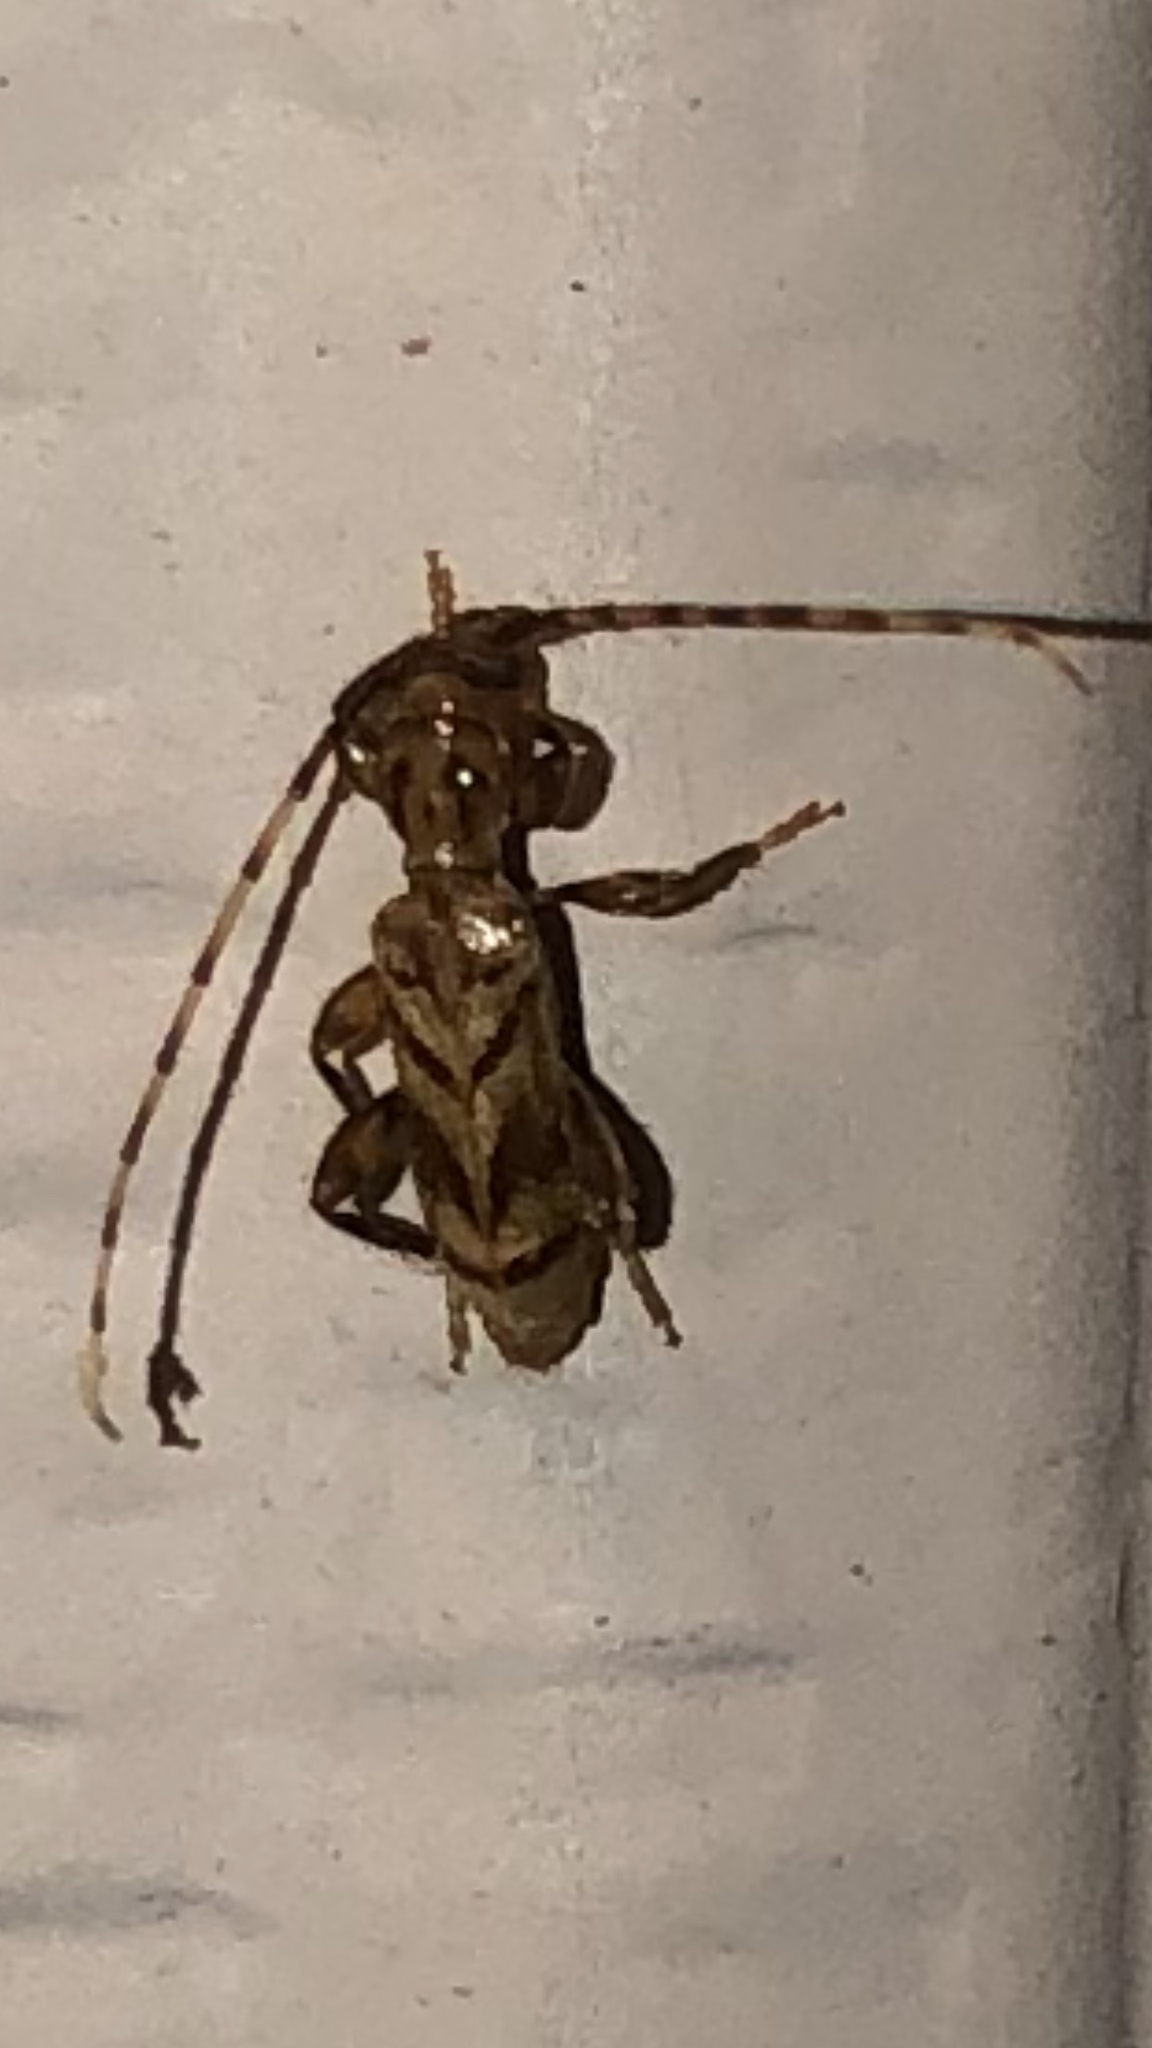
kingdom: Animalia
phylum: Arthropoda
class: Insecta
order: Coleoptera
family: Cerambycidae
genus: Obrium
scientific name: Obrium maculatum
